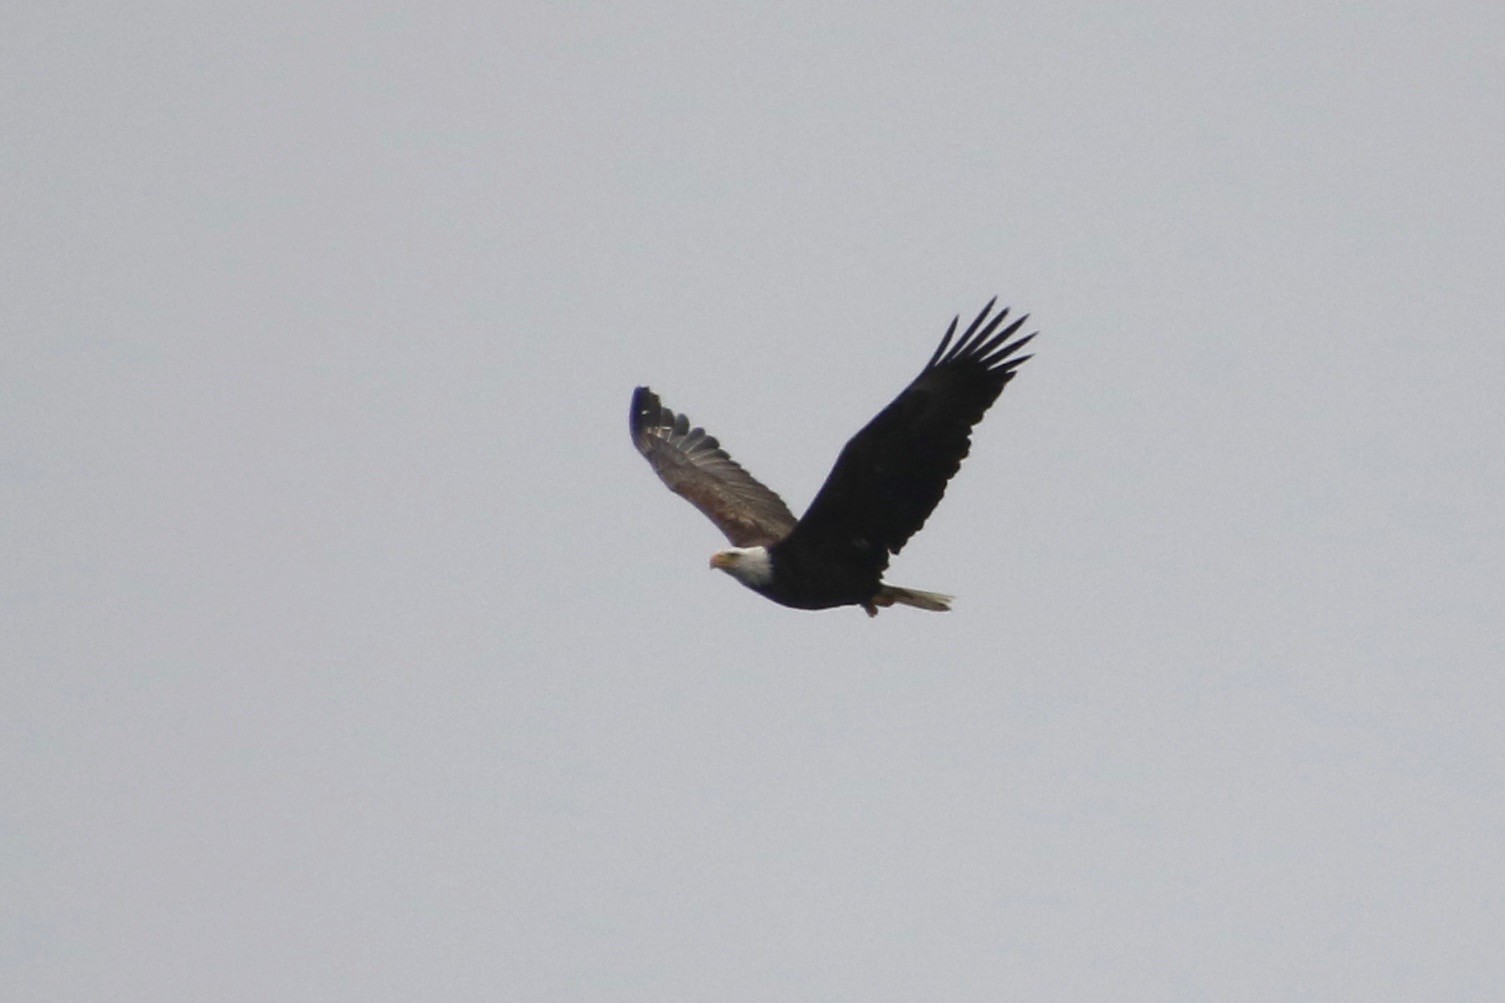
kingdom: Animalia
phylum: Chordata
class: Aves
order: Accipitriformes
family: Accipitridae
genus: Haliaeetus
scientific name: Haliaeetus leucocephalus
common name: Bald eagle
